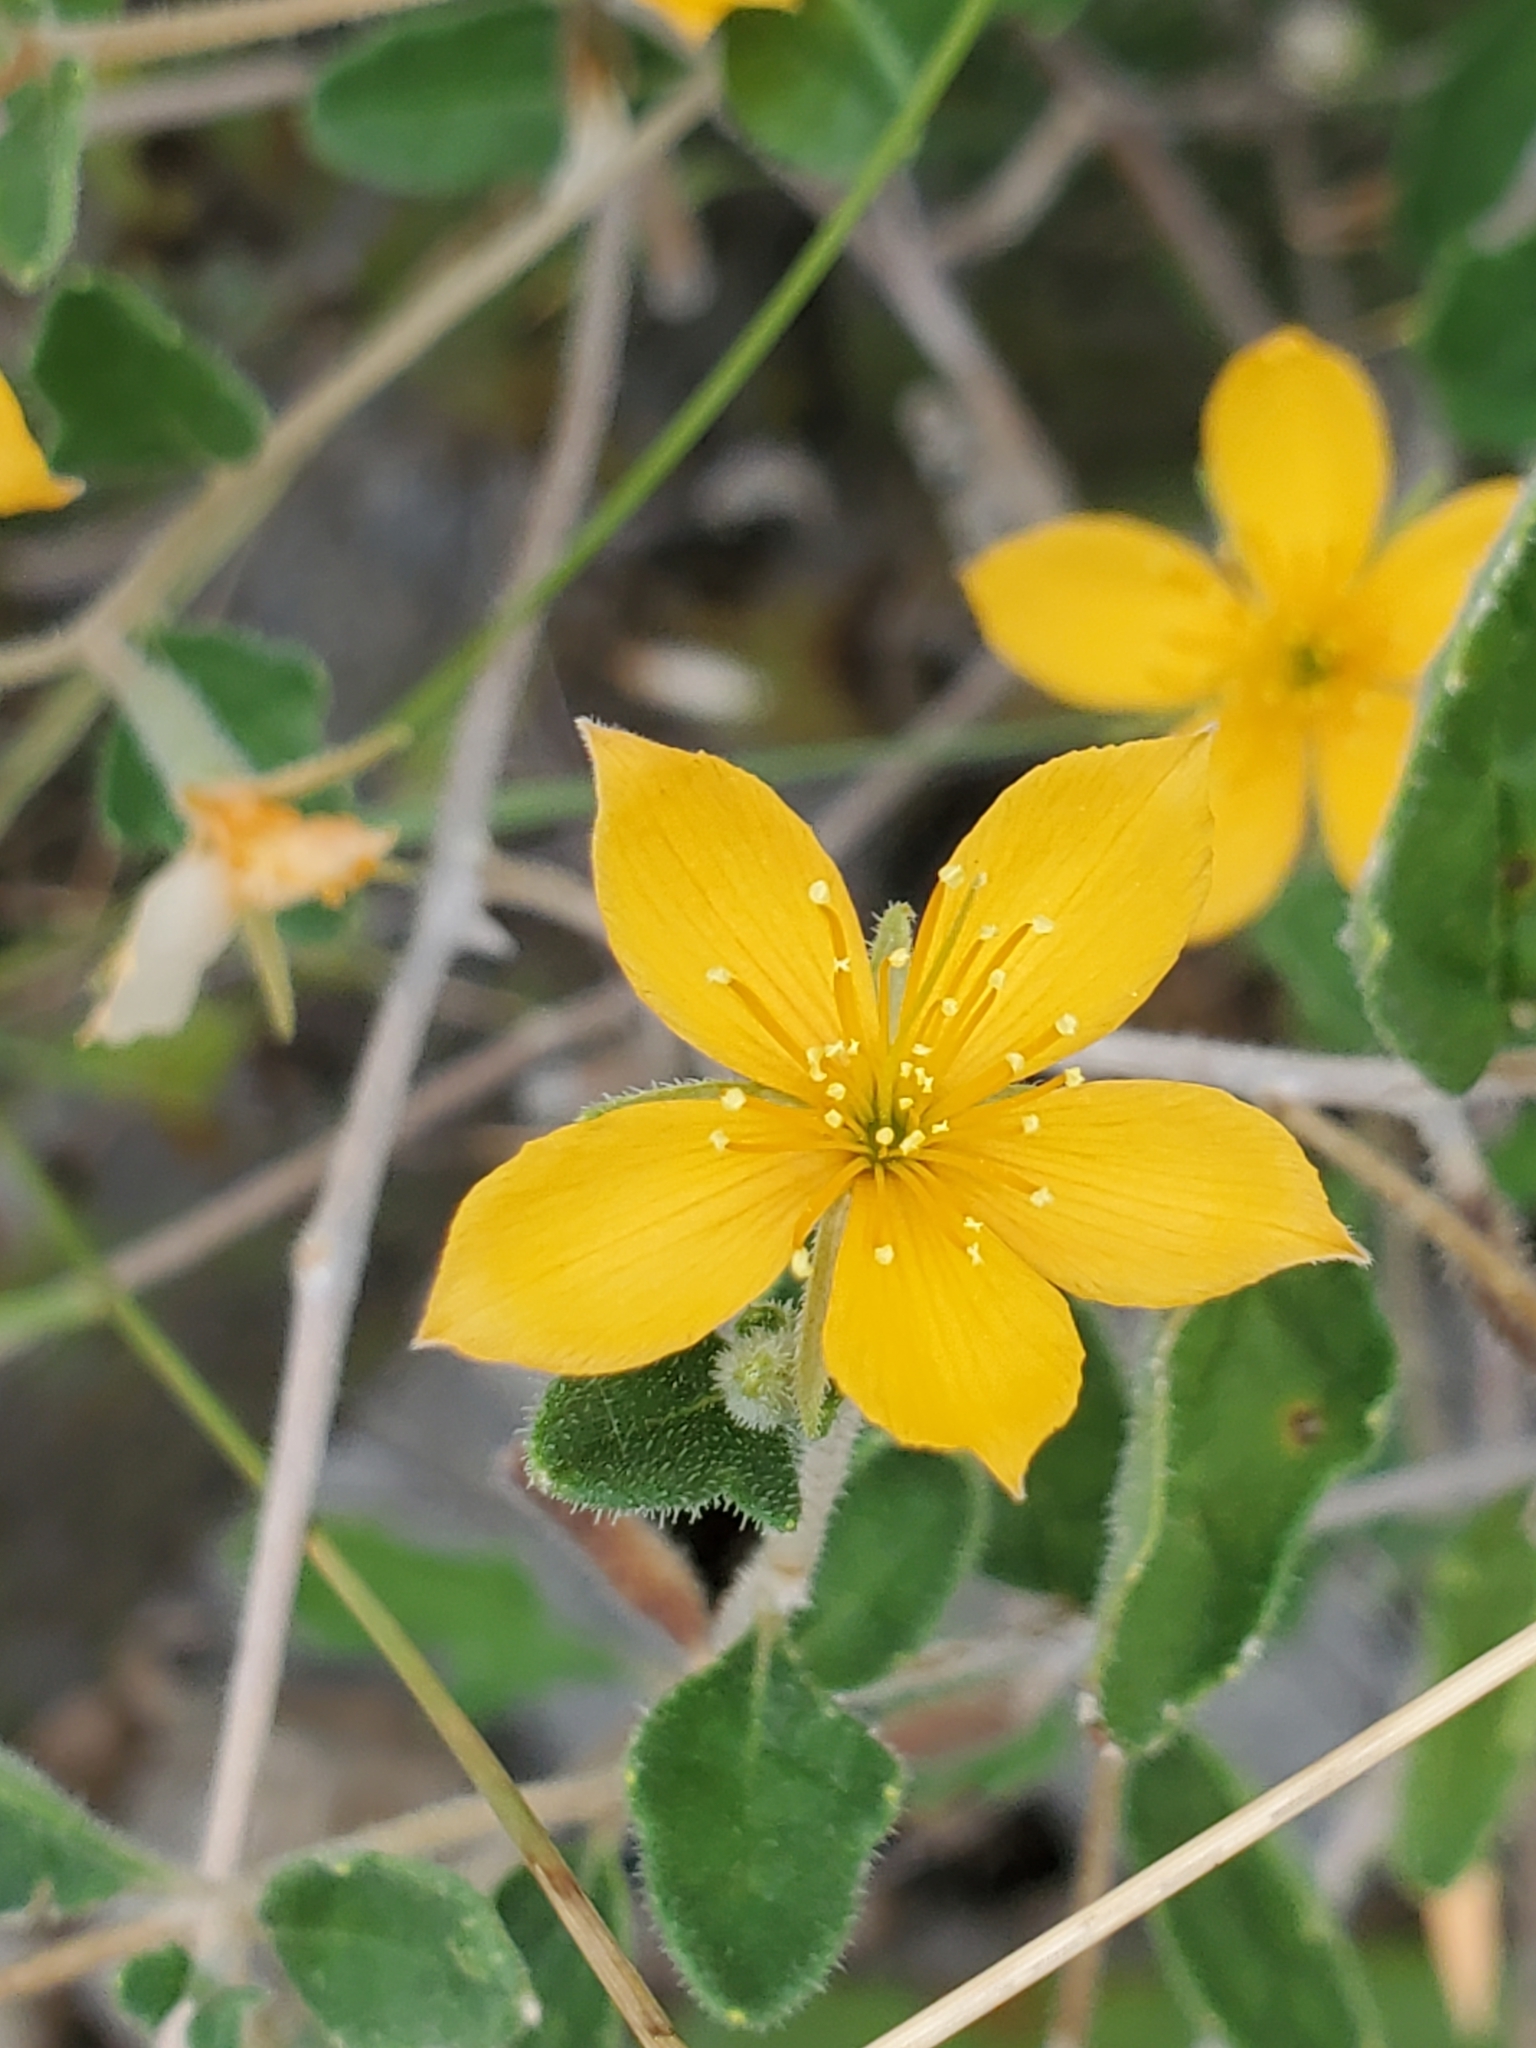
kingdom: Plantae
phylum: Tracheophyta
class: Magnoliopsida
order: Cornales
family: Loasaceae
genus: Mentzelia
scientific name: Mentzelia oligosperma
